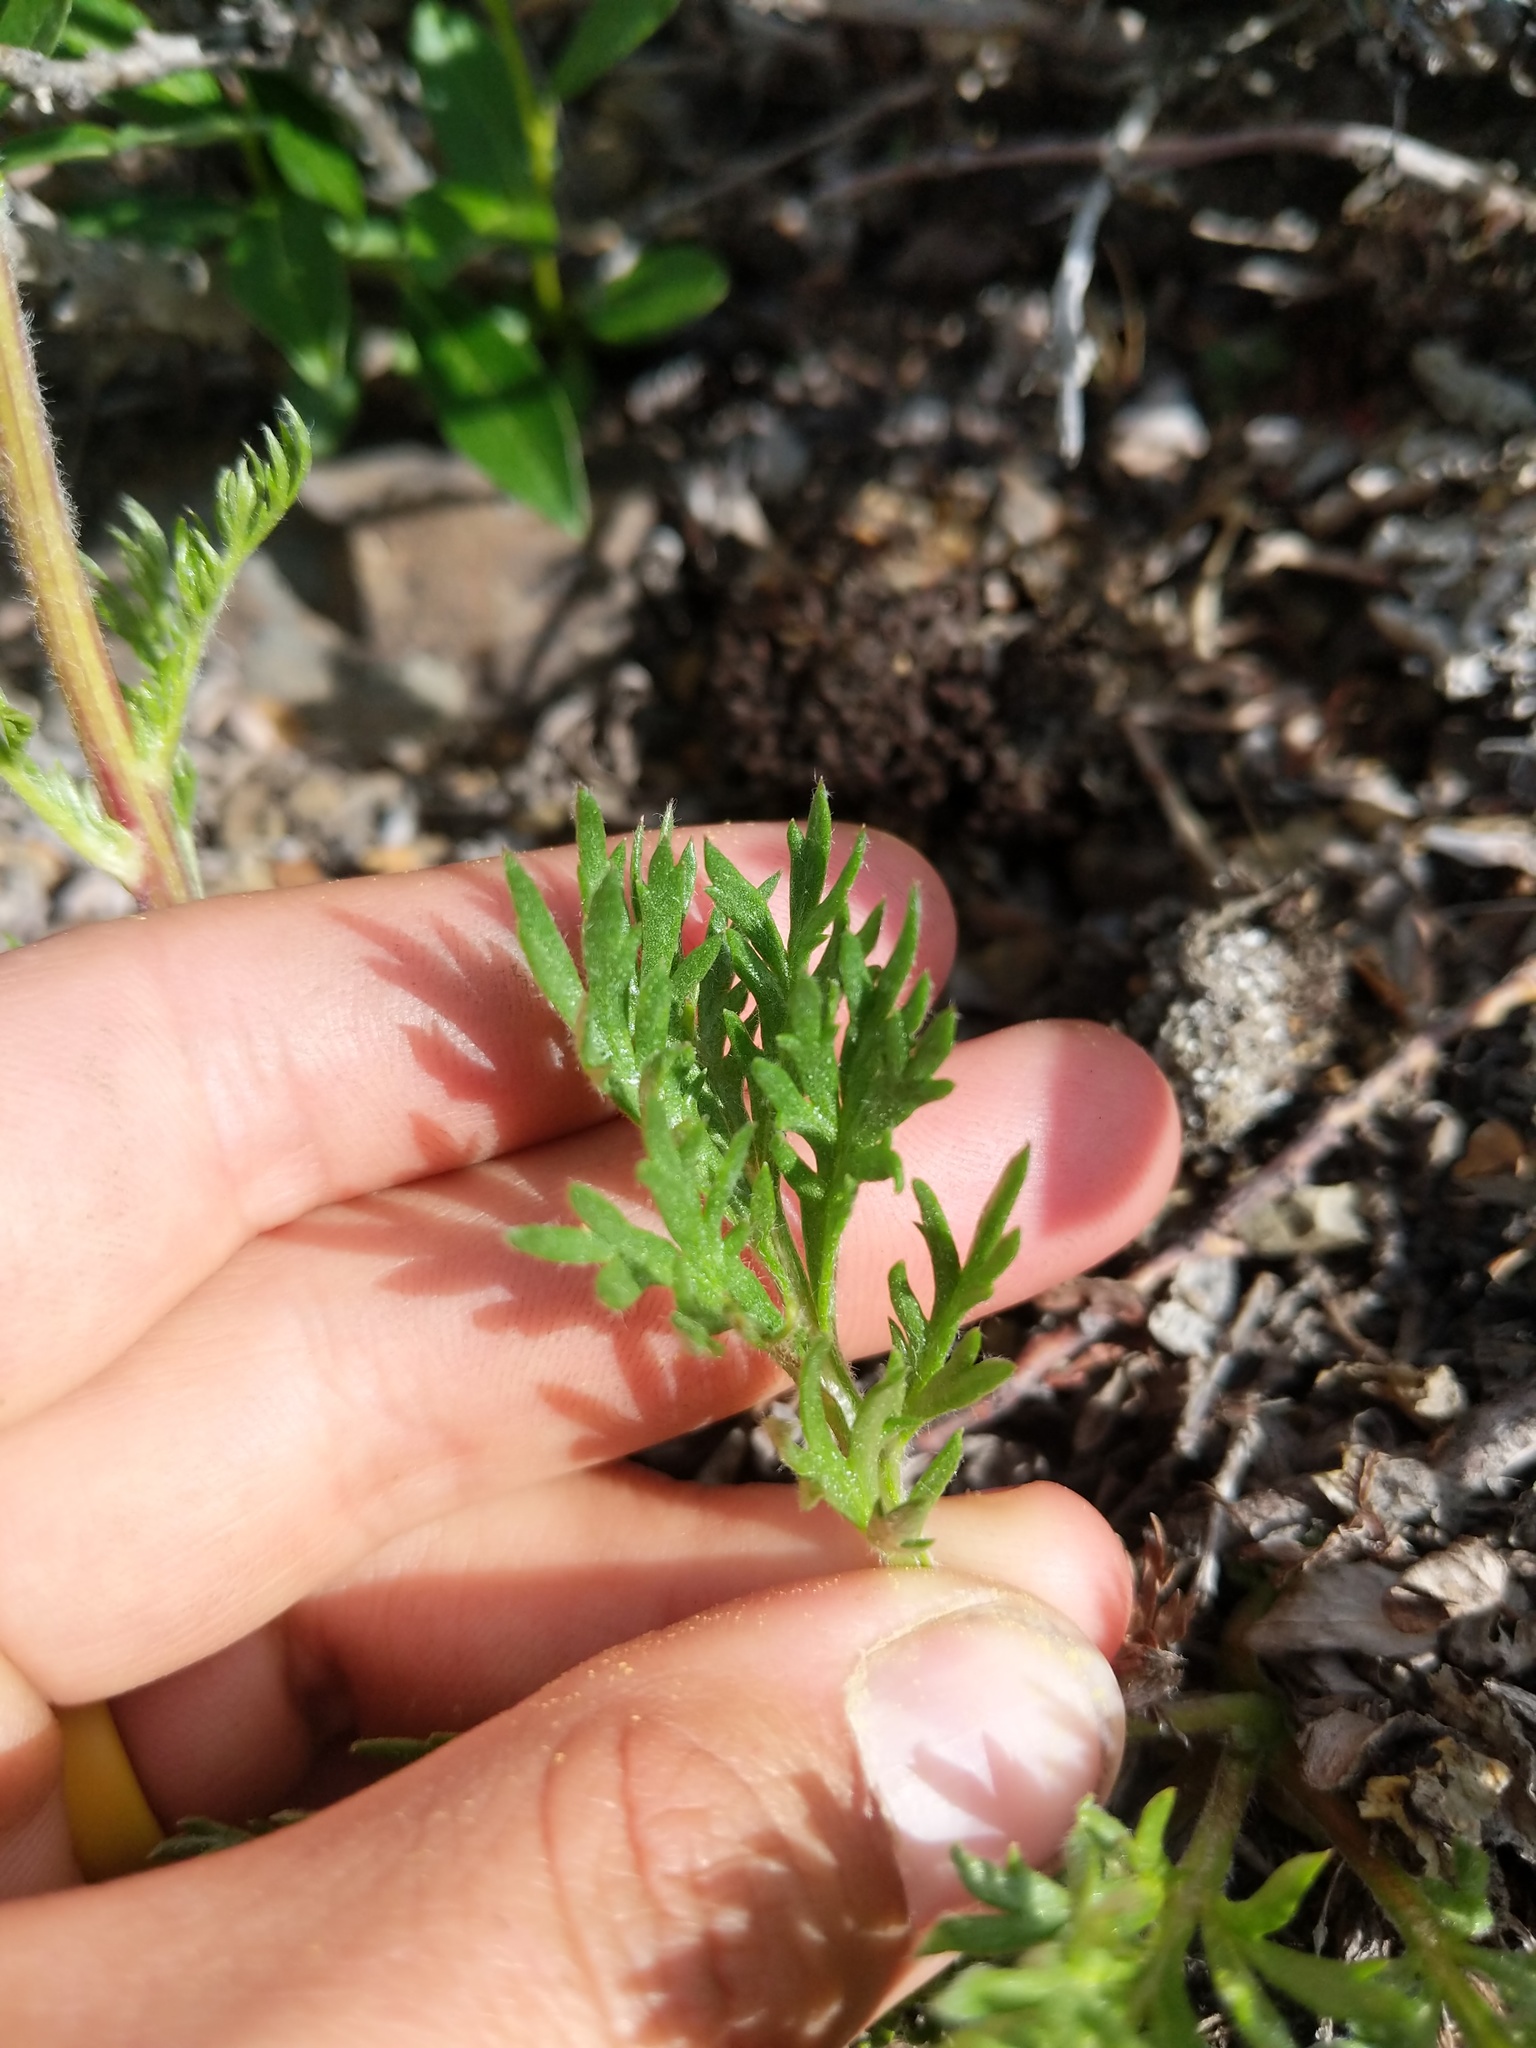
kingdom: Plantae
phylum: Tracheophyta
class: Magnoliopsida
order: Asterales
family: Asteraceae
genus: Artemisia
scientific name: Artemisia norvegica
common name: Norwegian mugwort
